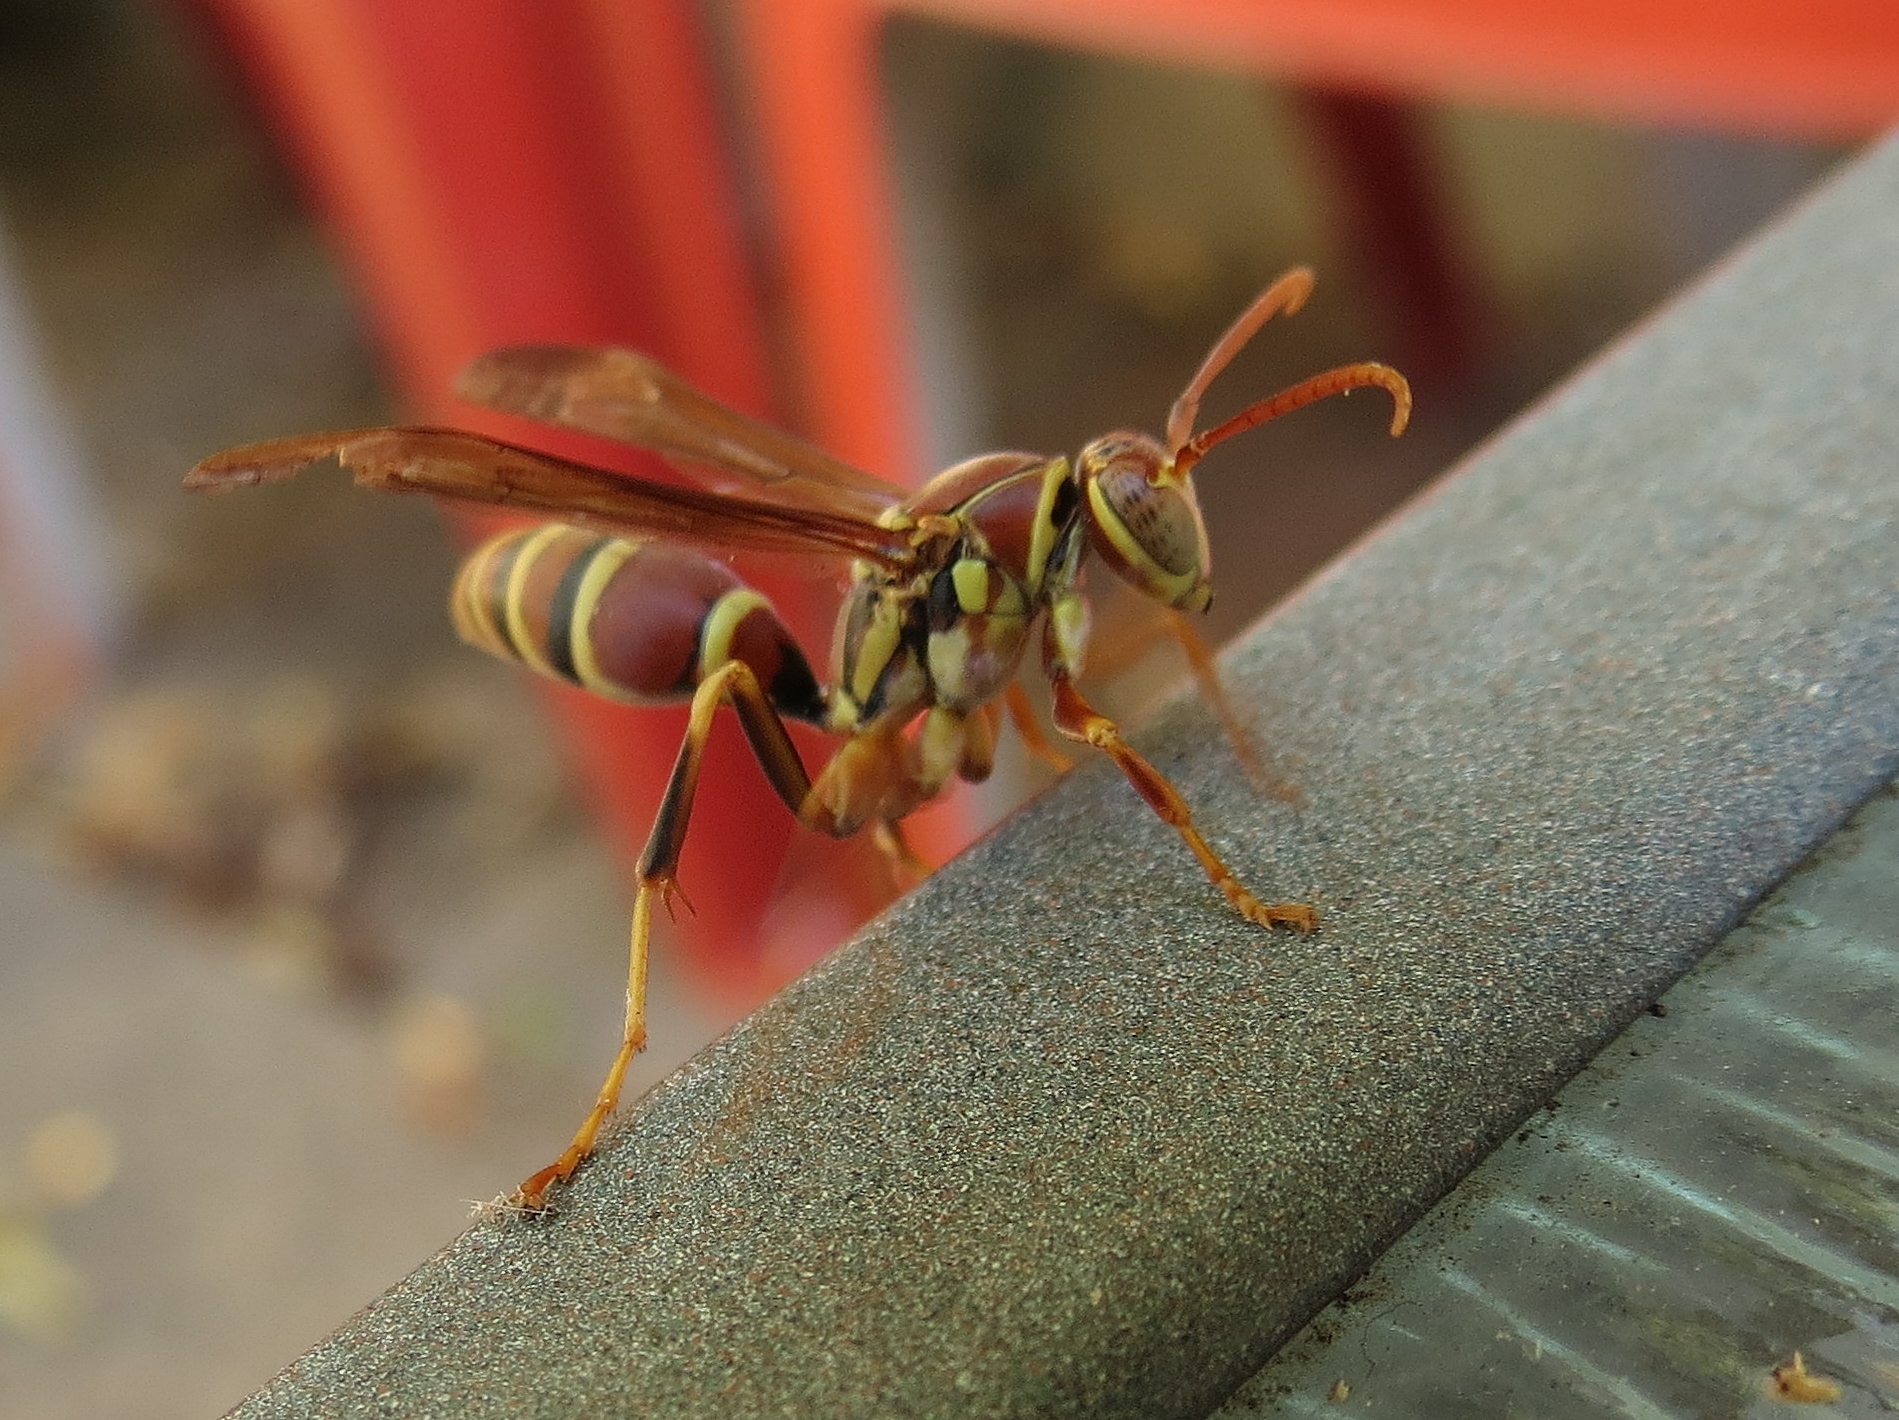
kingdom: Animalia
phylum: Arthropoda
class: Insecta
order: Hymenoptera
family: Eumenidae
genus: Polistes
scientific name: Polistes exclamans
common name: Paper wasp
